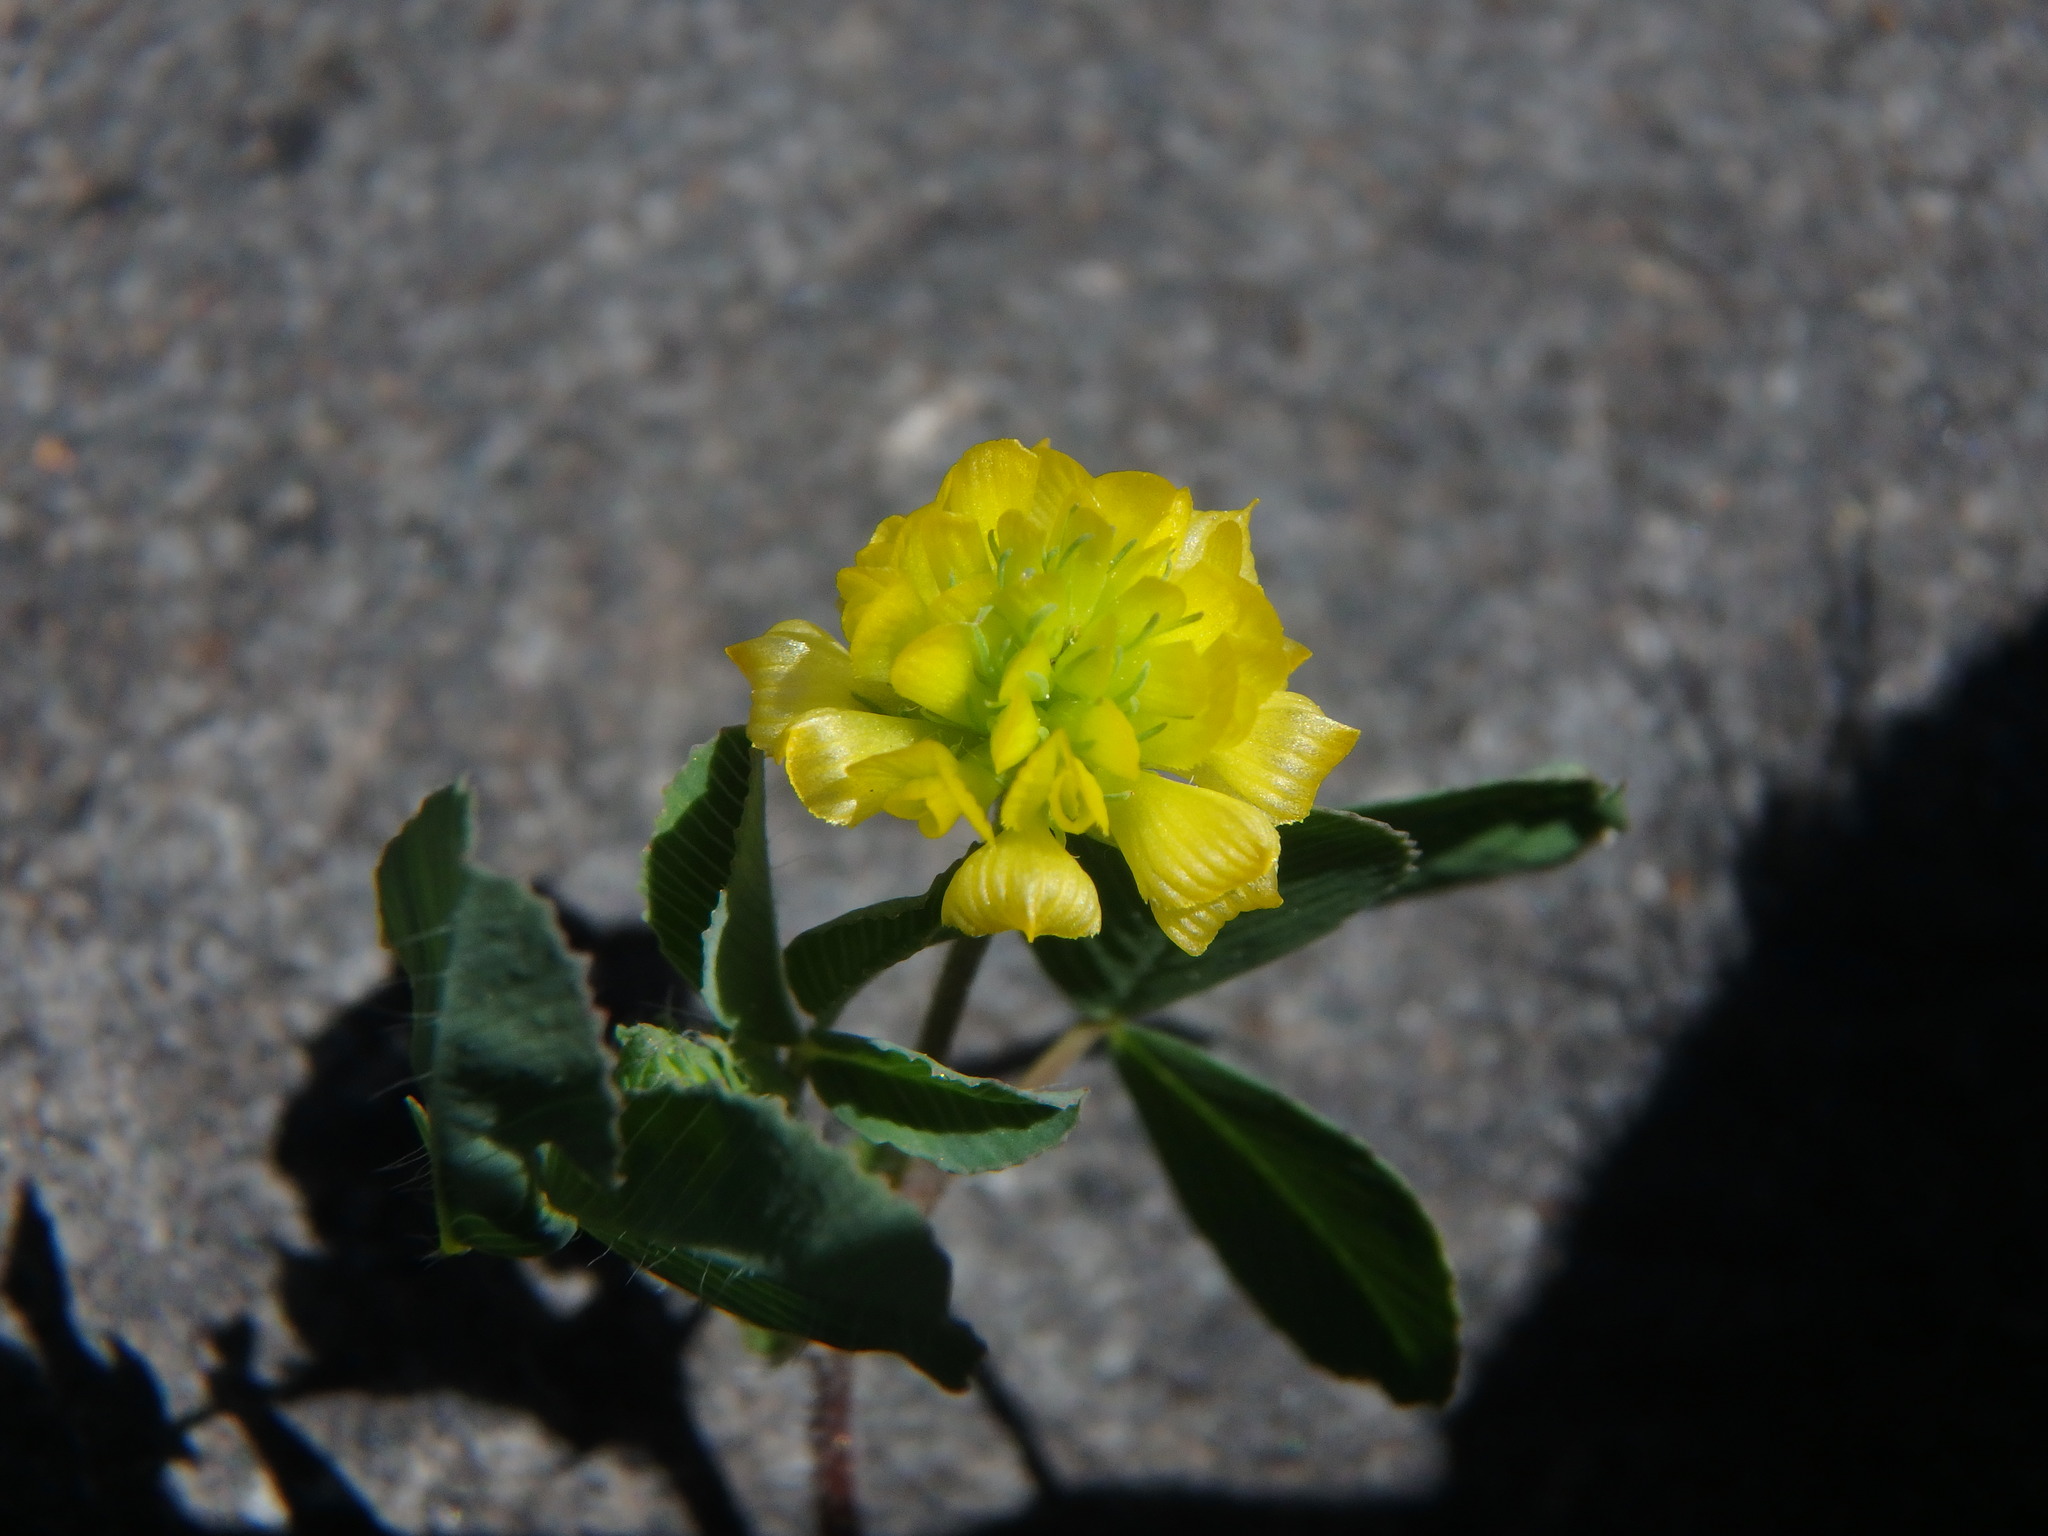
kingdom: Plantae
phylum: Tracheophyta
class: Magnoliopsida
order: Fabales
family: Fabaceae
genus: Trifolium
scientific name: Trifolium campestre
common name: Field clover
